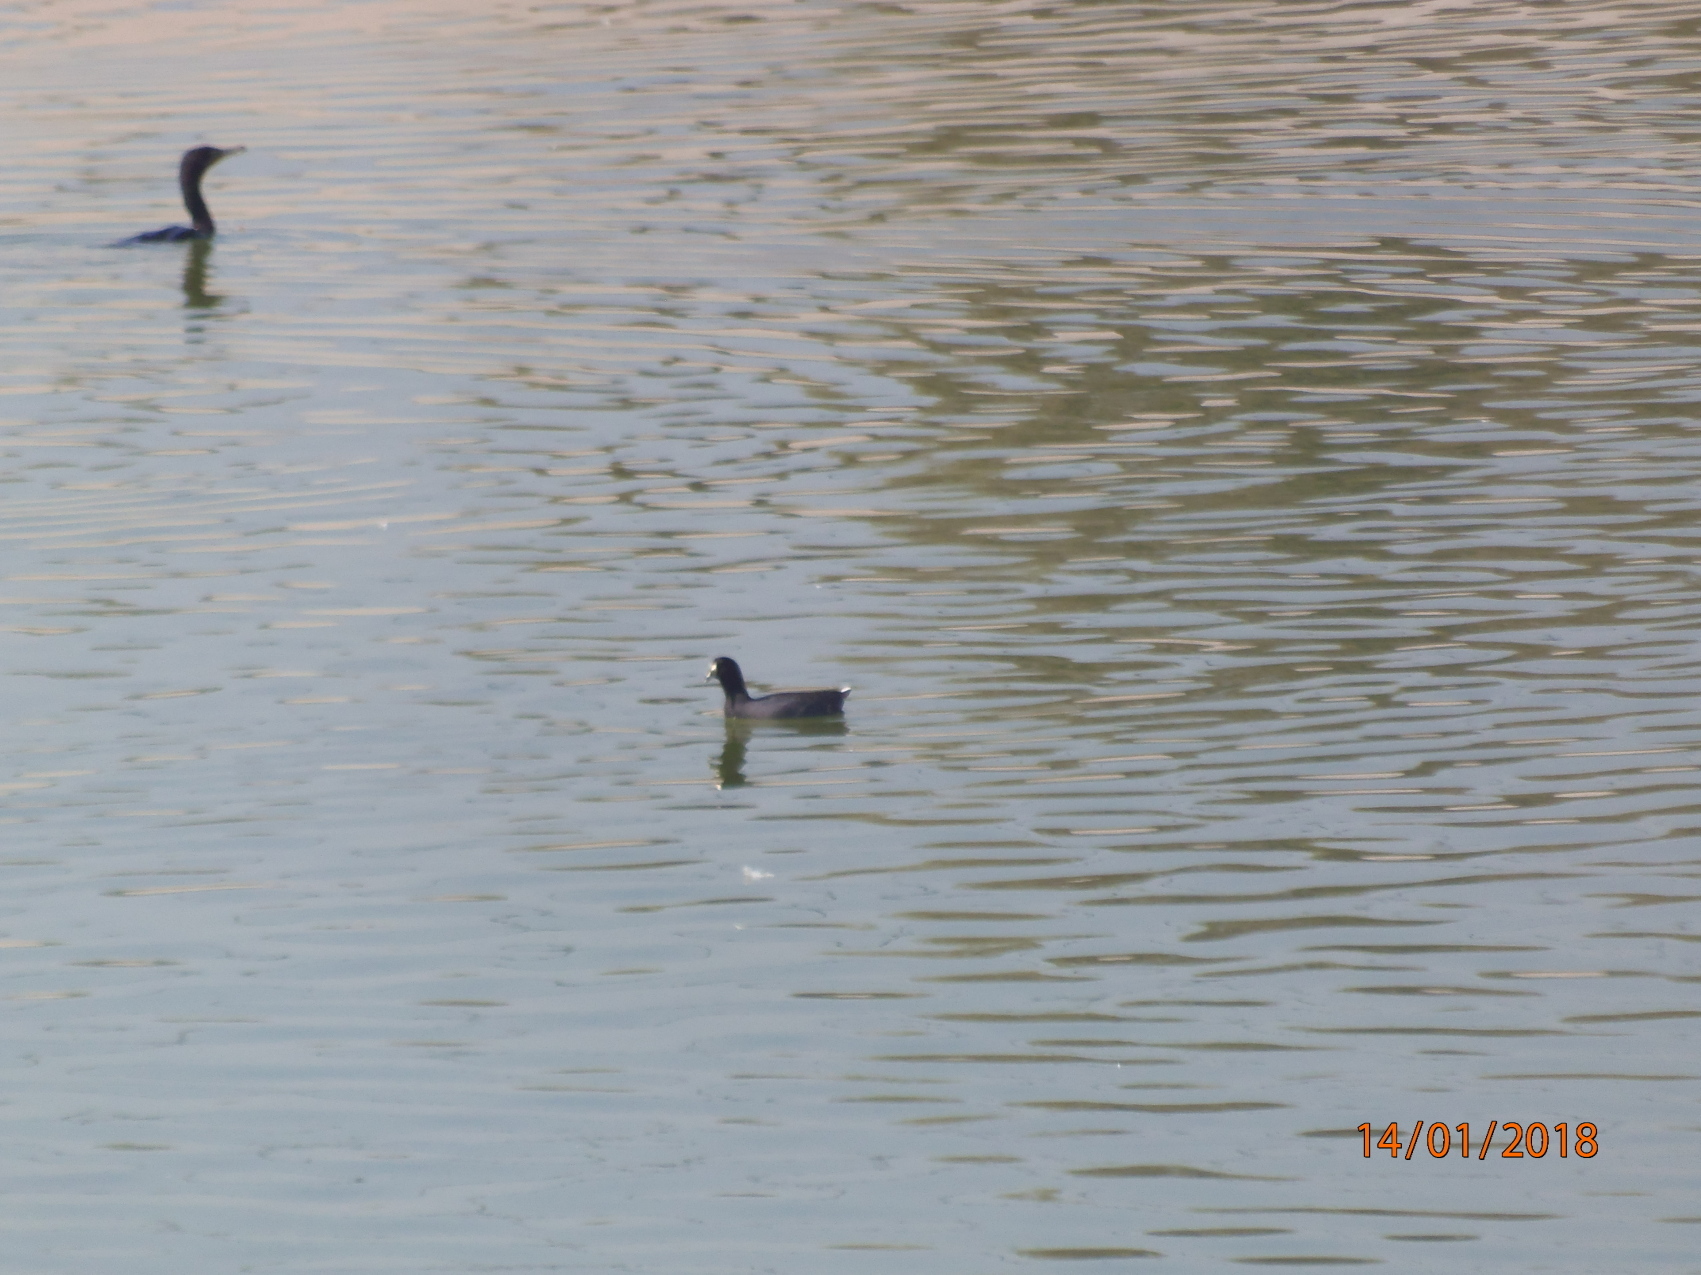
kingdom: Animalia
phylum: Chordata
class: Aves
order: Suliformes
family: Phalacrocoracidae
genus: Phalacrocorax
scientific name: Phalacrocorax brasilianus
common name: Neotropic cormorant
